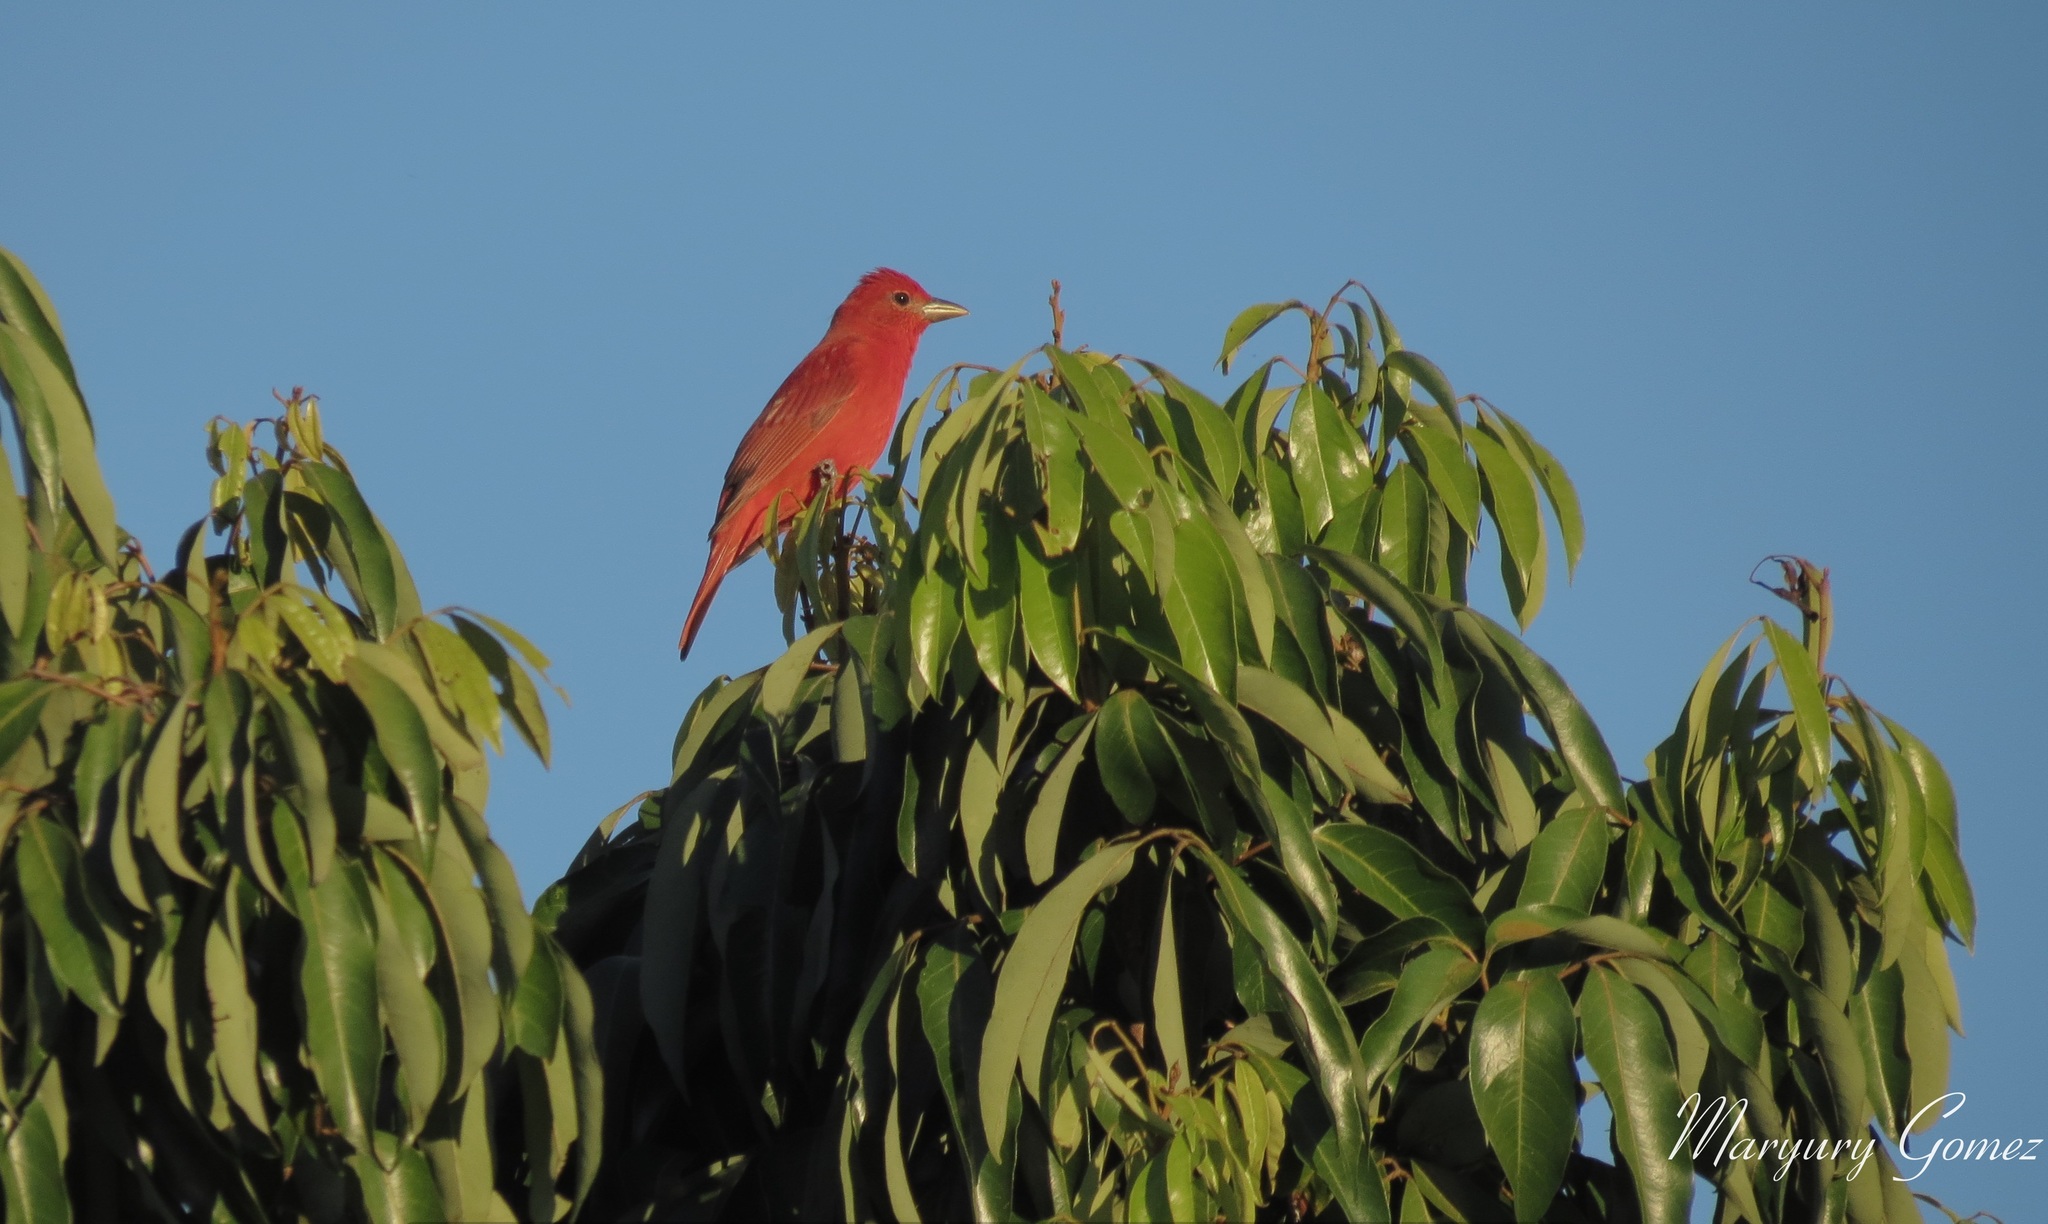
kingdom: Animalia
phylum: Chordata
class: Aves
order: Passeriformes
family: Cardinalidae
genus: Piranga
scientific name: Piranga rubra
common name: Summer tanager
